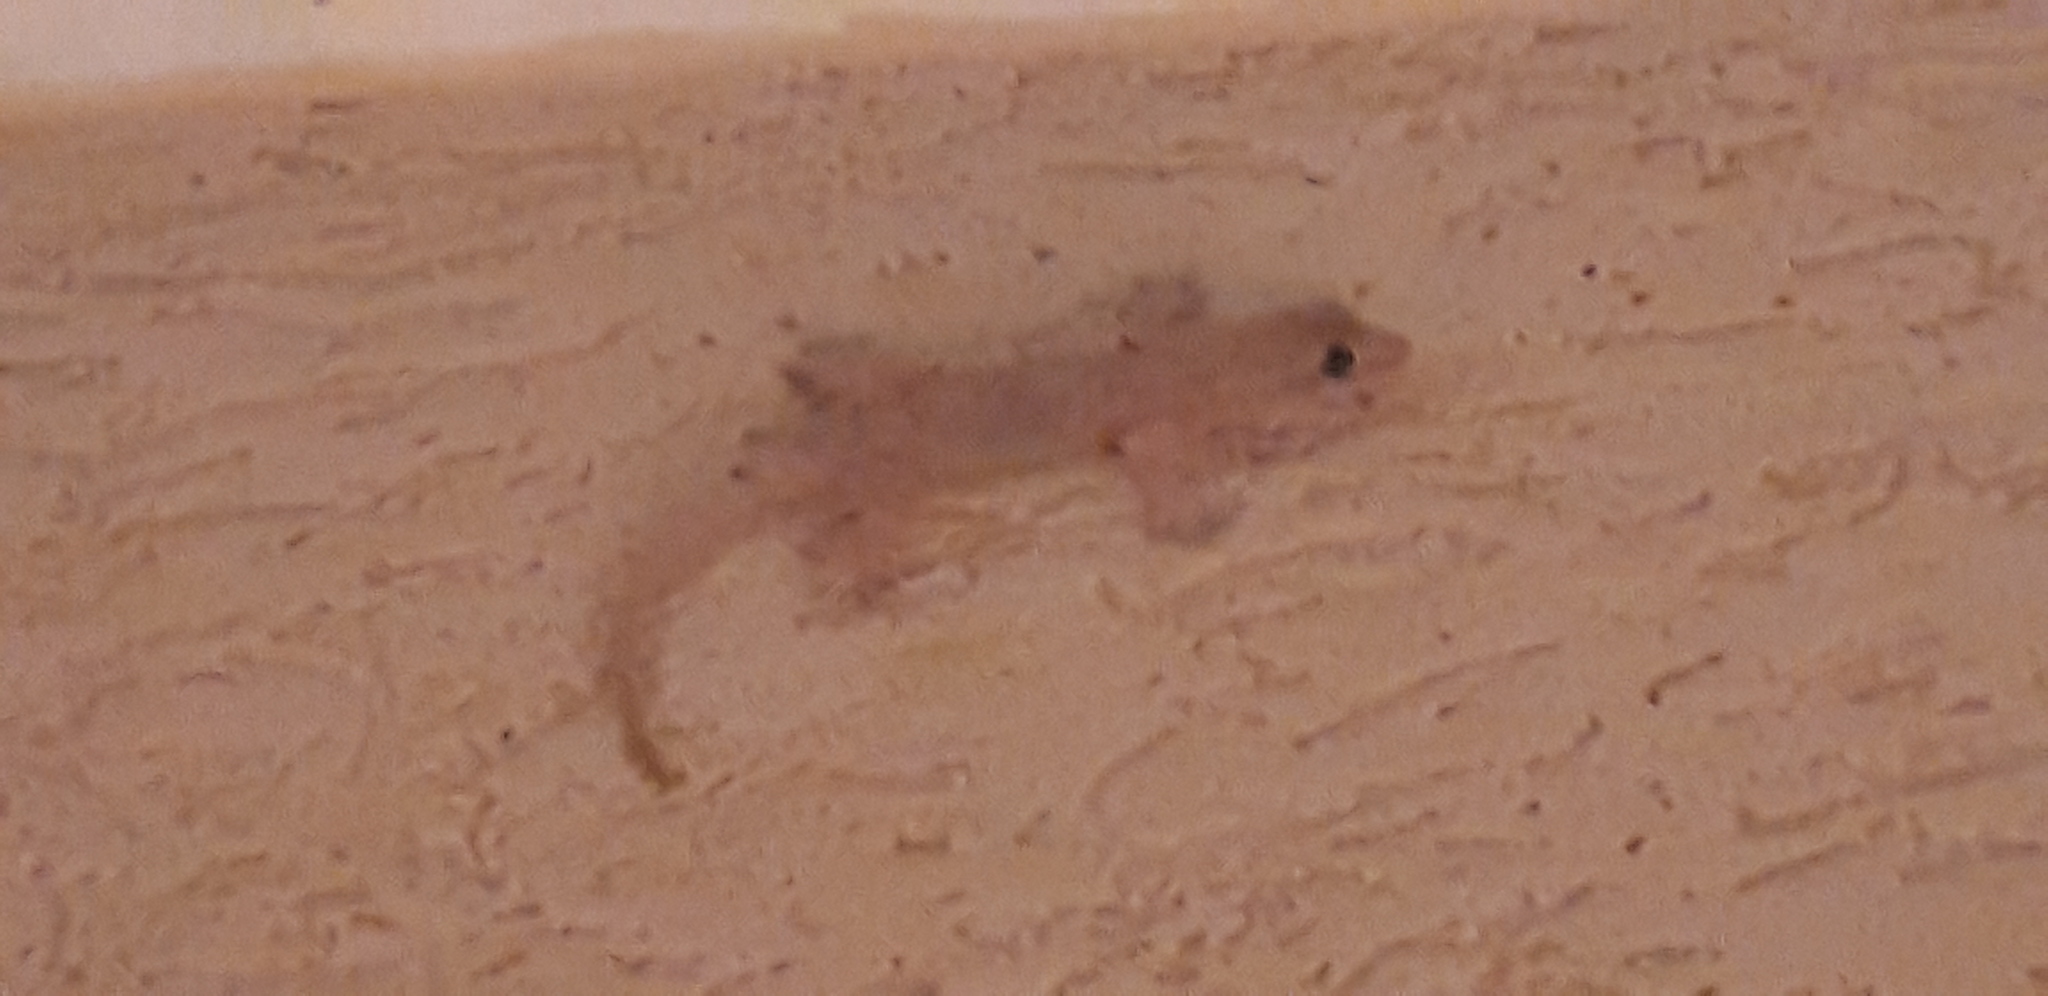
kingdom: Animalia
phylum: Chordata
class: Squamata
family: Gekkonidae
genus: Hemidactylus
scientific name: Hemidactylus mabouia
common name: House gecko
